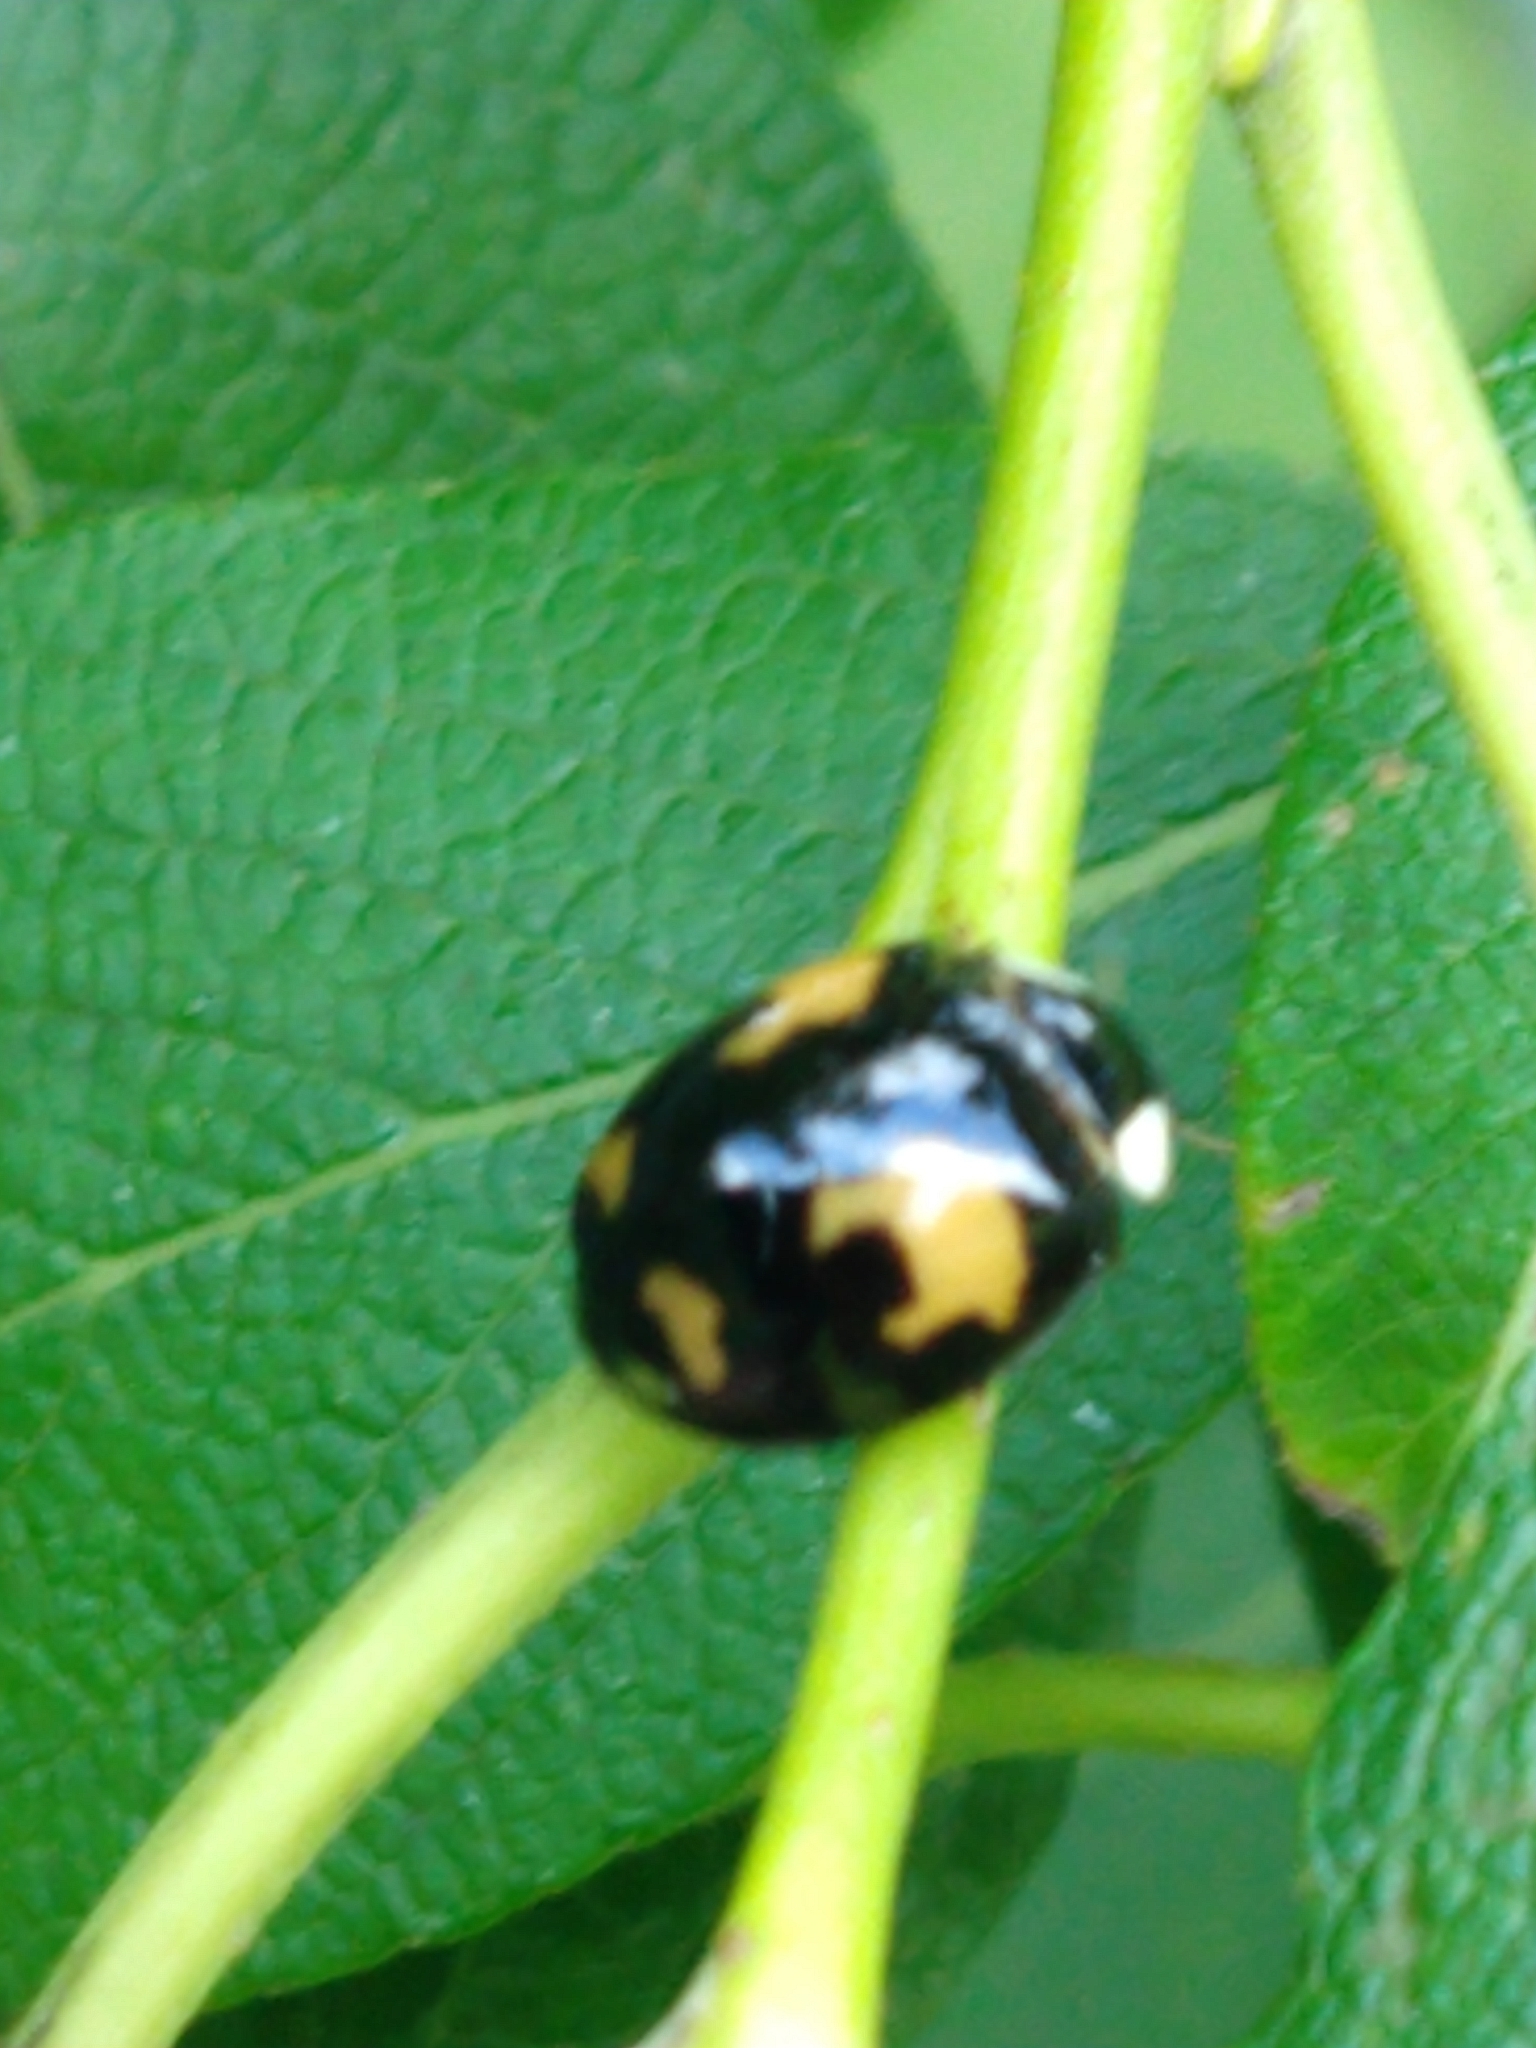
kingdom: Animalia
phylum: Arthropoda
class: Insecta
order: Coleoptera
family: Coccinellidae
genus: Harmonia
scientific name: Harmonia axyridis
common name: Harlequin ladybird
